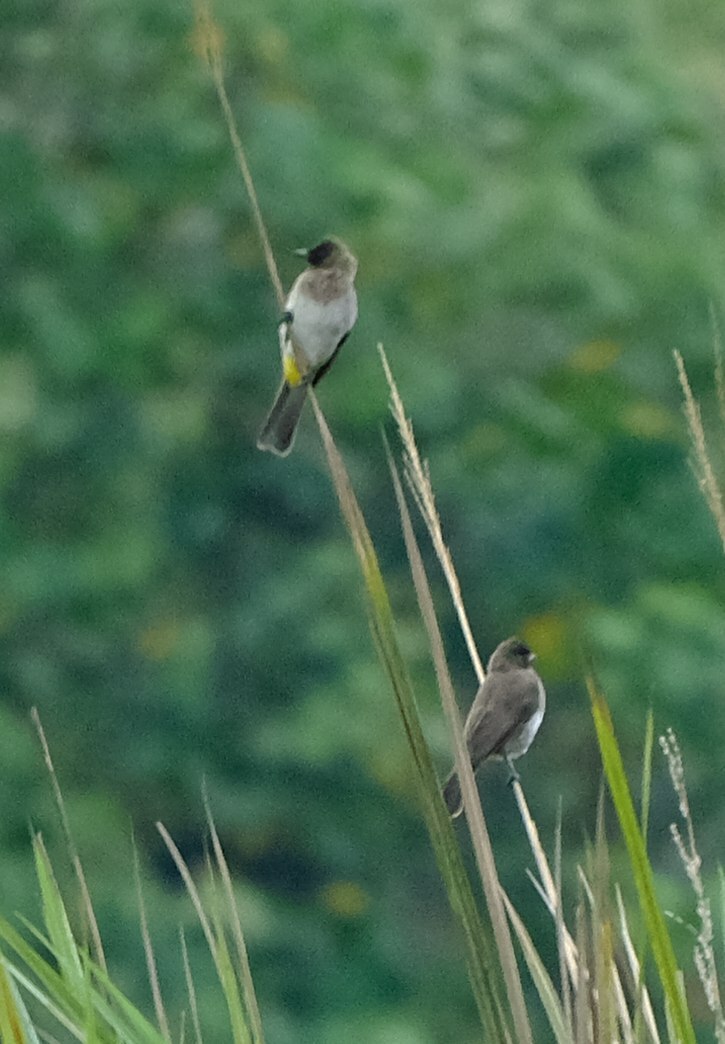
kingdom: Animalia
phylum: Chordata
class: Aves
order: Passeriformes
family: Pycnonotidae
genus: Pycnonotus
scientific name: Pycnonotus barbatus
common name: Common bulbul
